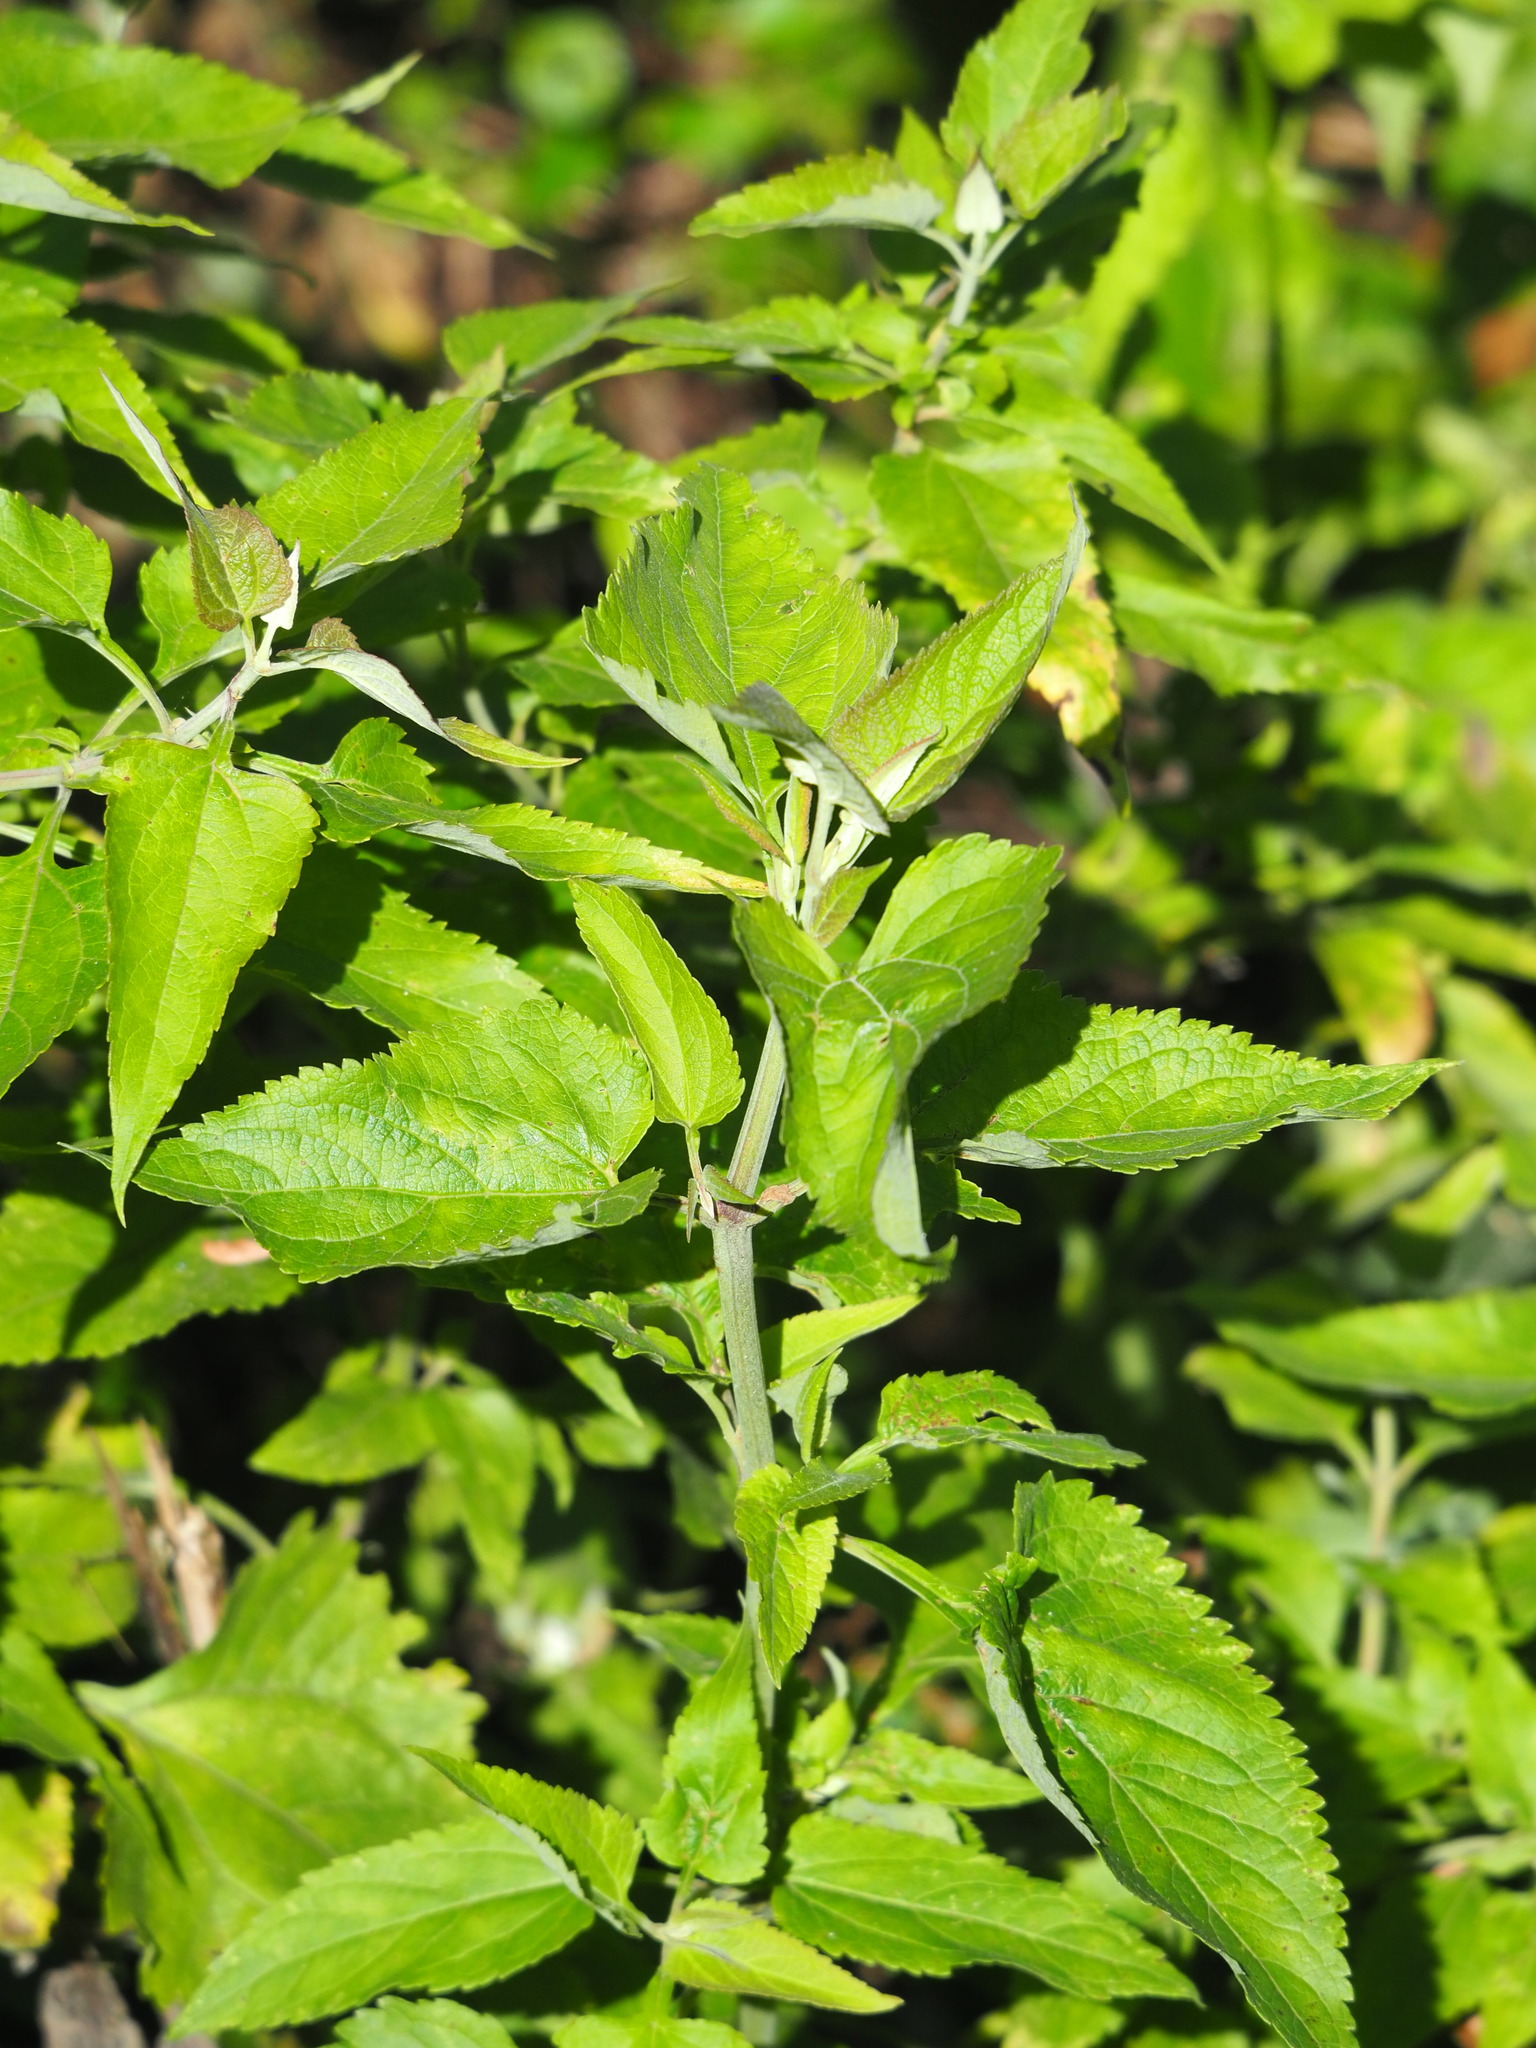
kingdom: Plantae
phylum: Tracheophyta
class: Magnoliopsida
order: Asterales
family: Asteraceae
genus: Austroeupatorium
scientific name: Austroeupatorium inulifolium
